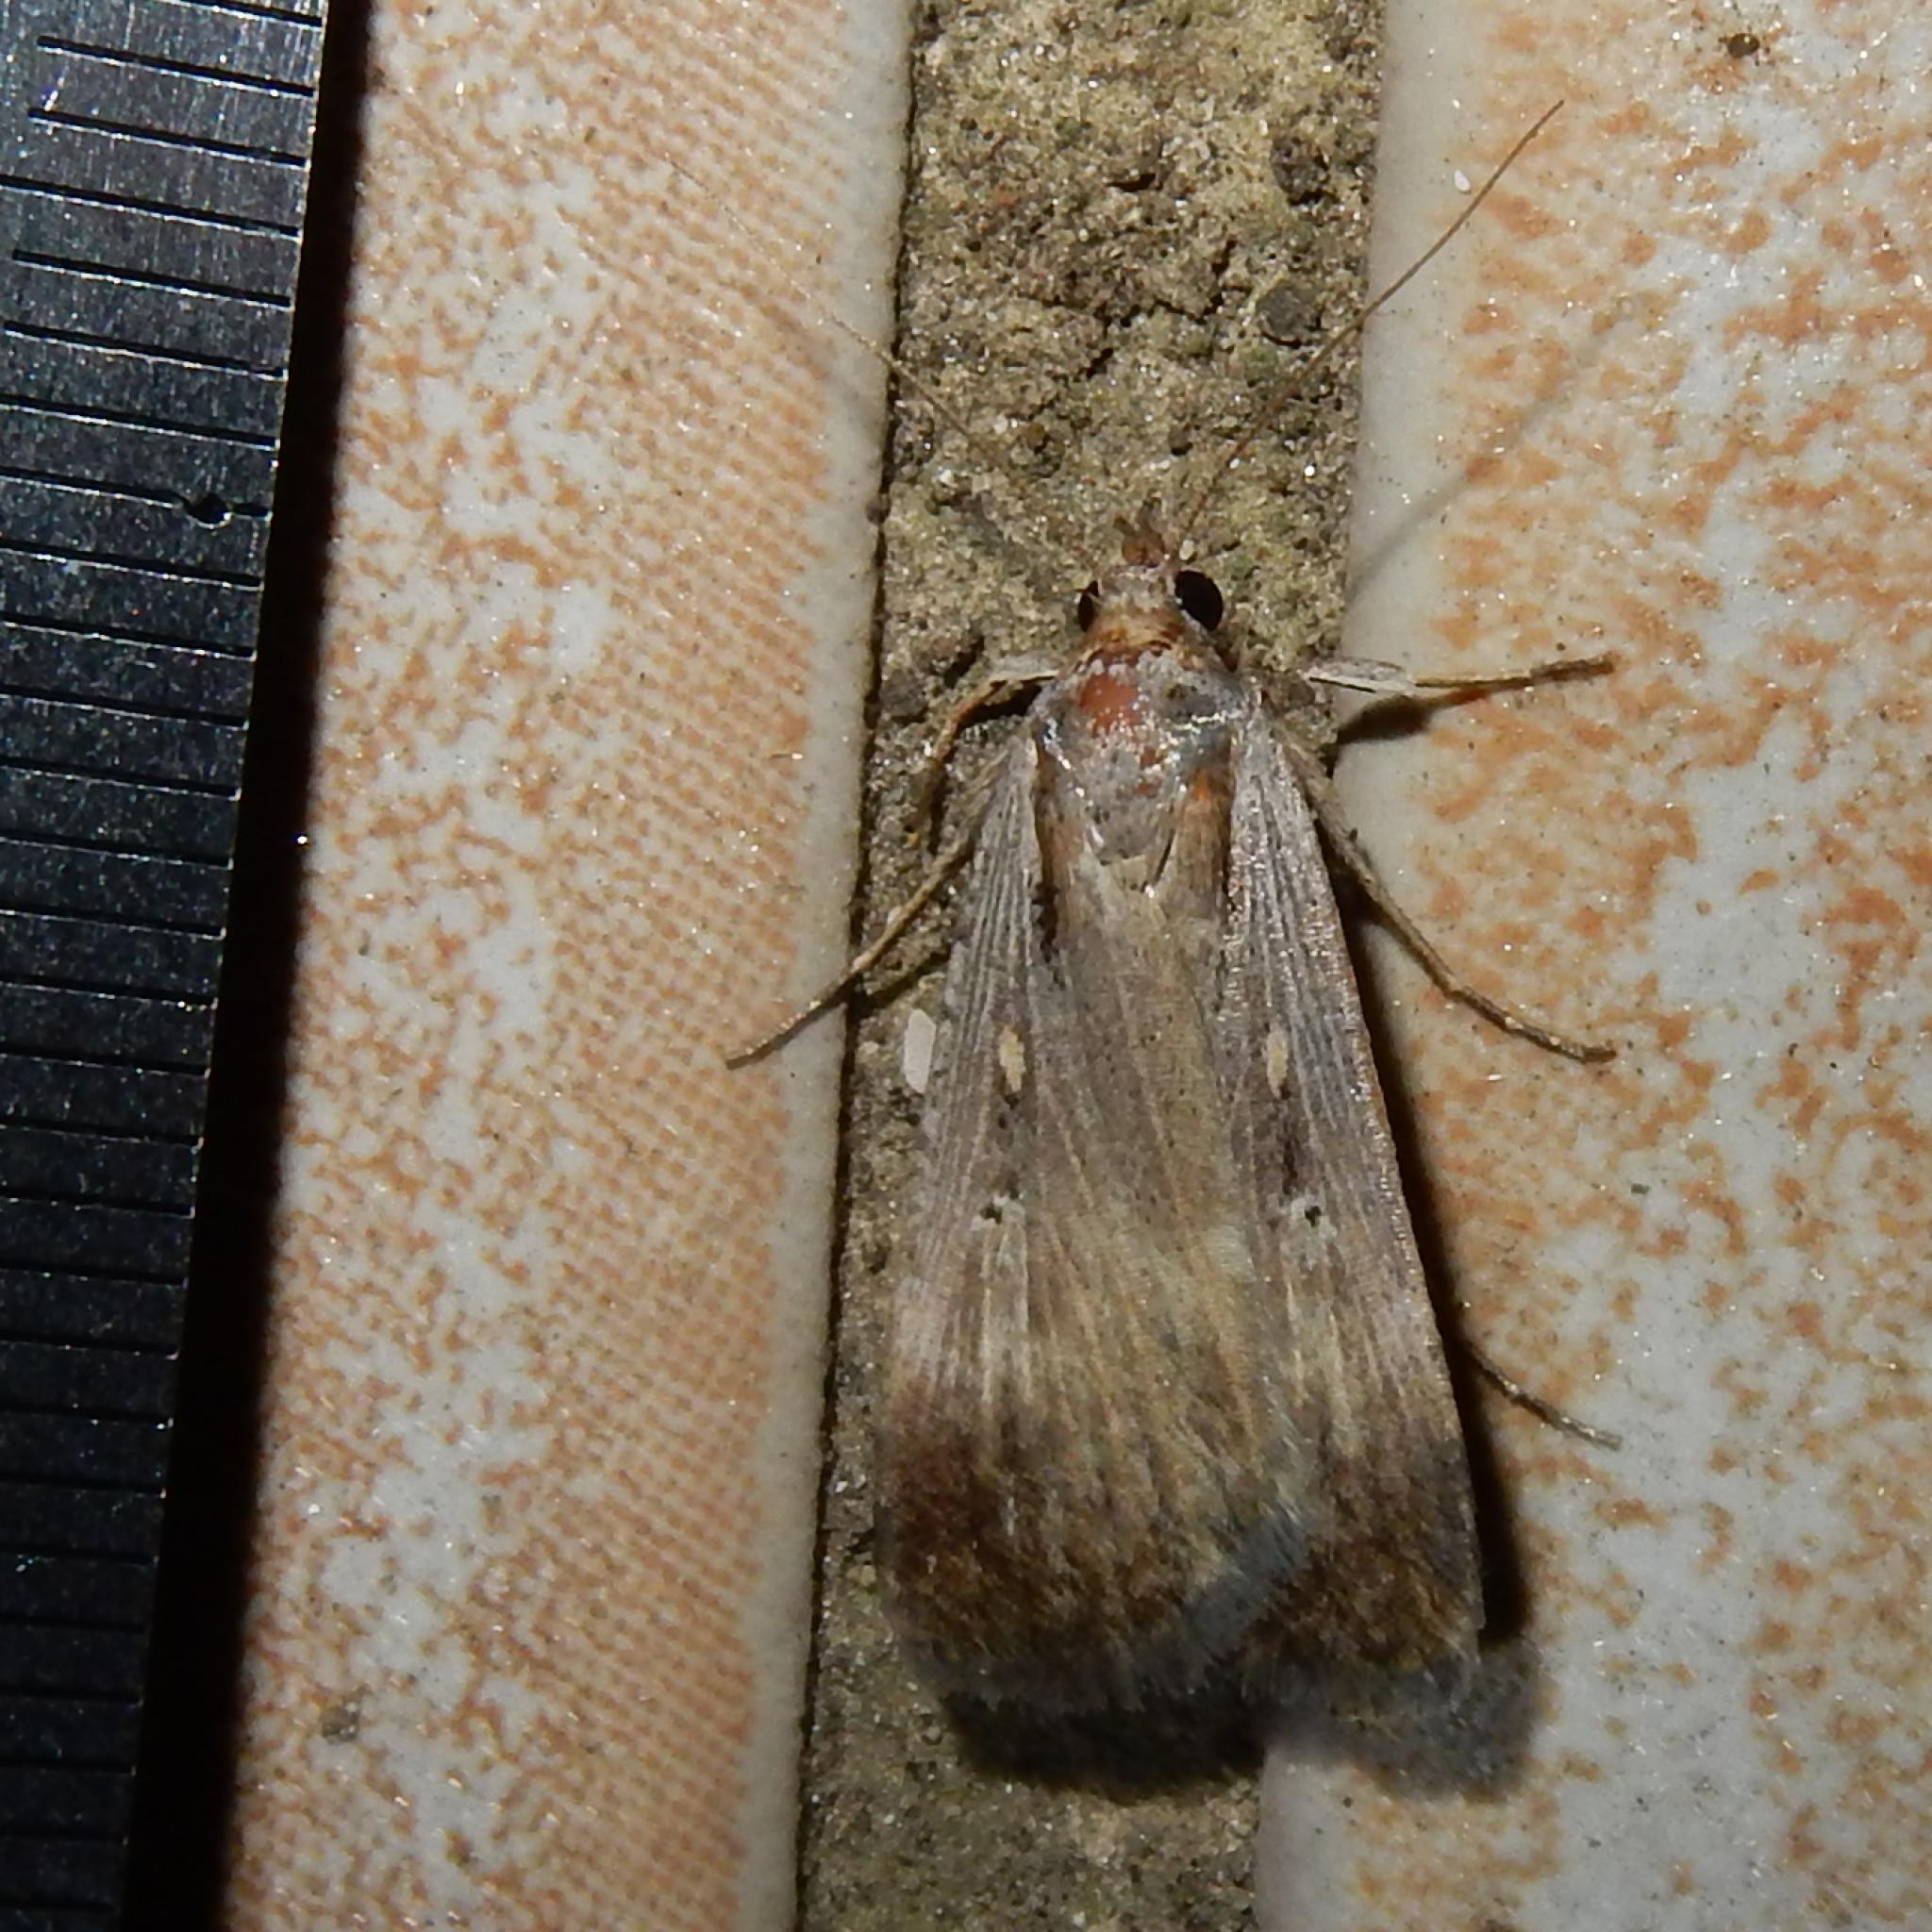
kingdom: Animalia
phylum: Arthropoda
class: Insecta
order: Lepidoptera
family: Noctuidae
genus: Tathorhynchus
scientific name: Tathorhynchus exsiccata
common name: Levant blackneck moth
